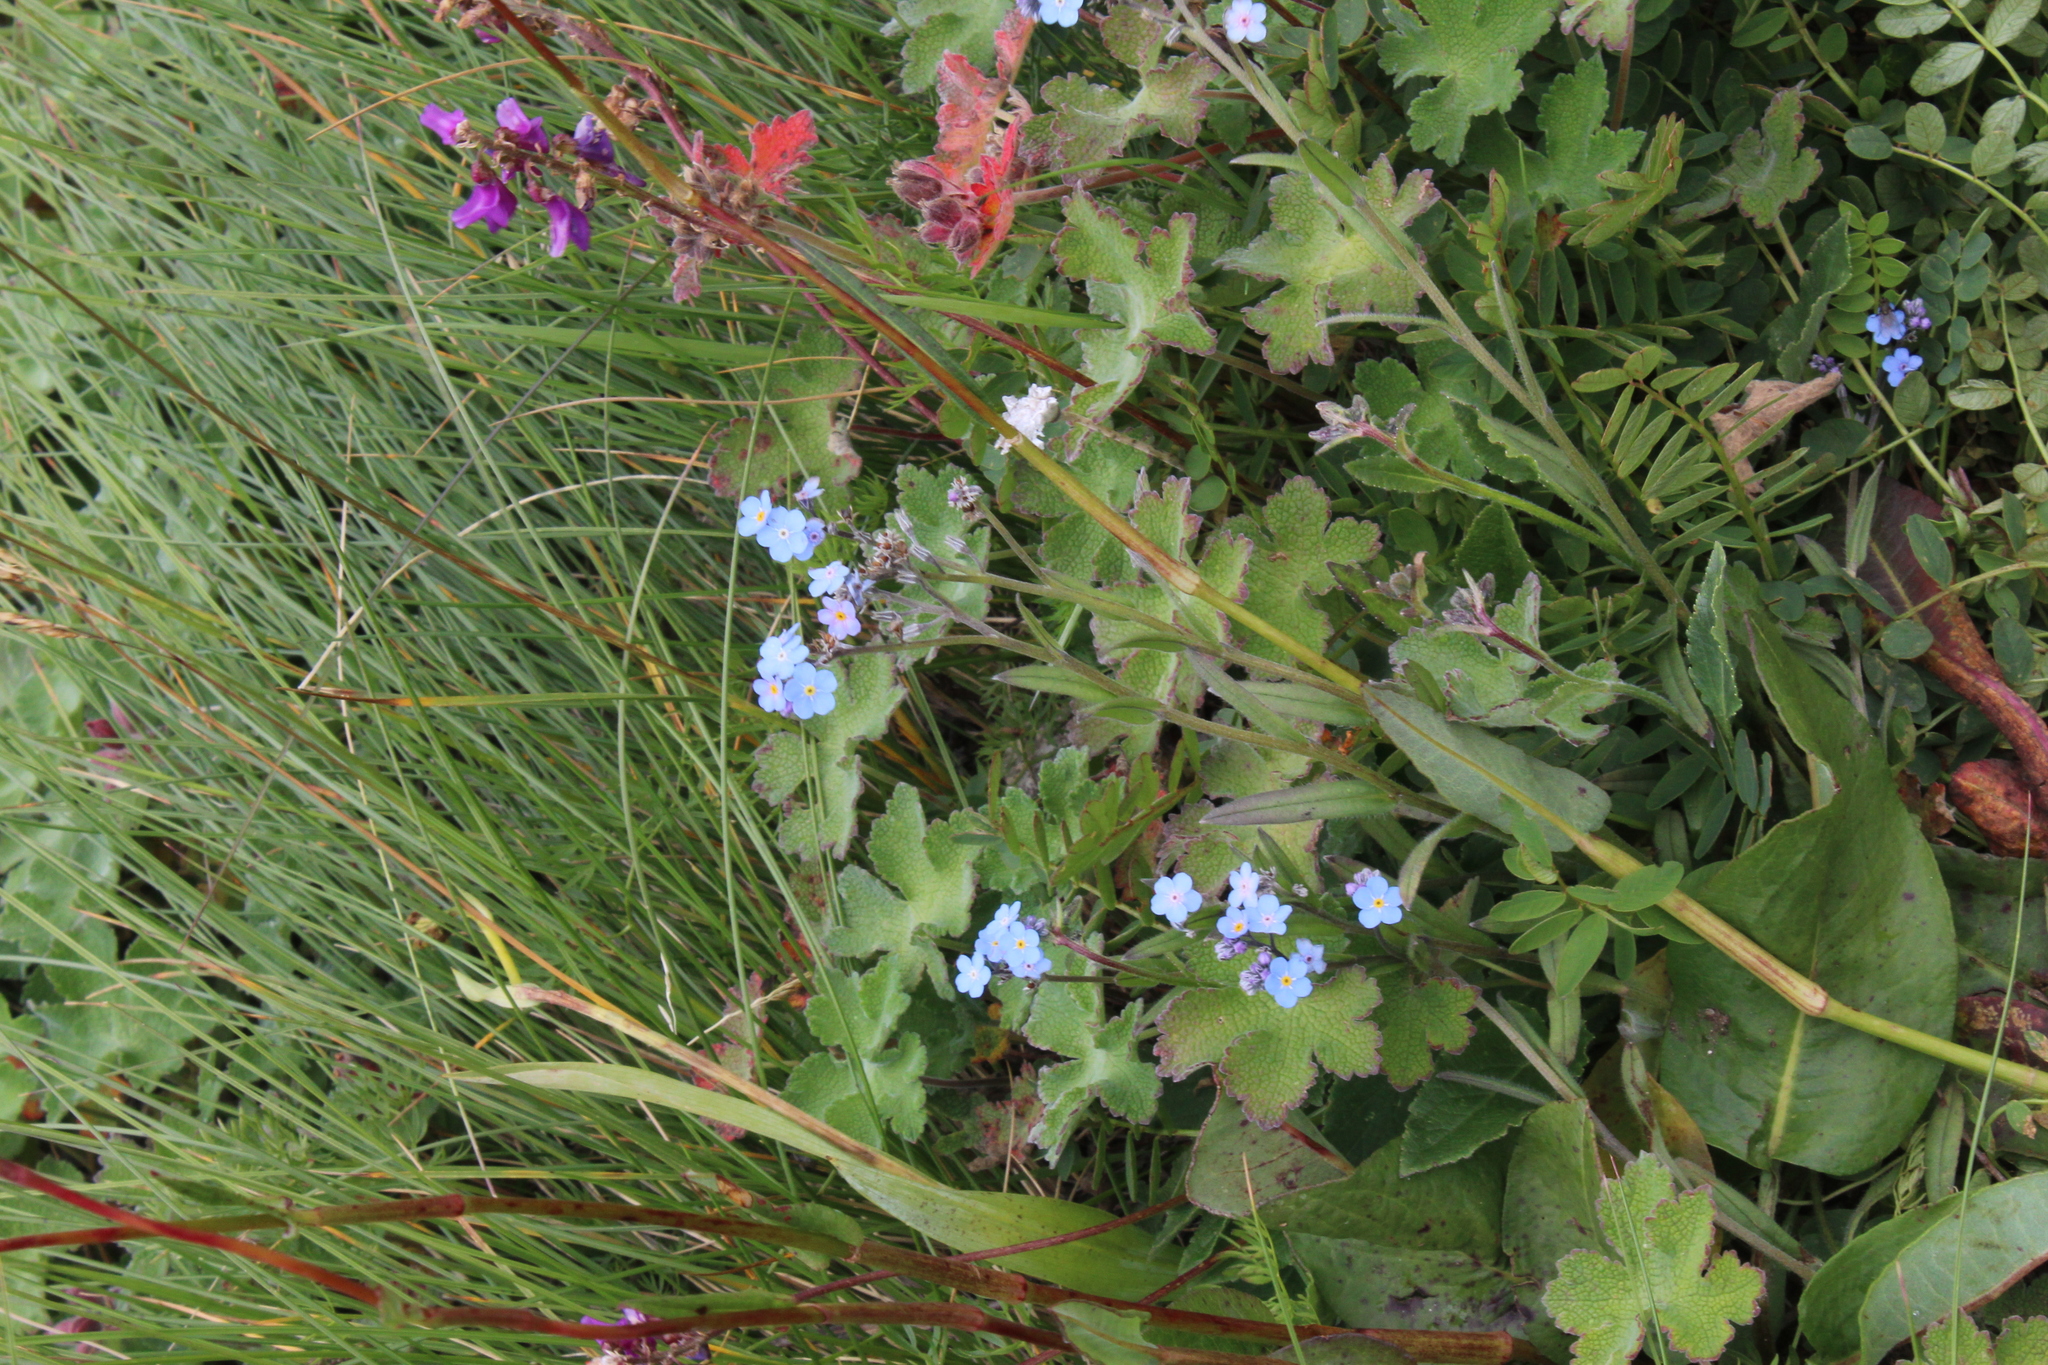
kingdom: Plantae
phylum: Tracheophyta
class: Magnoliopsida
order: Boraginales
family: Boraginaceae
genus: Myosotis
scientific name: Myosotis alpestris
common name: Alpine forget-me-not
